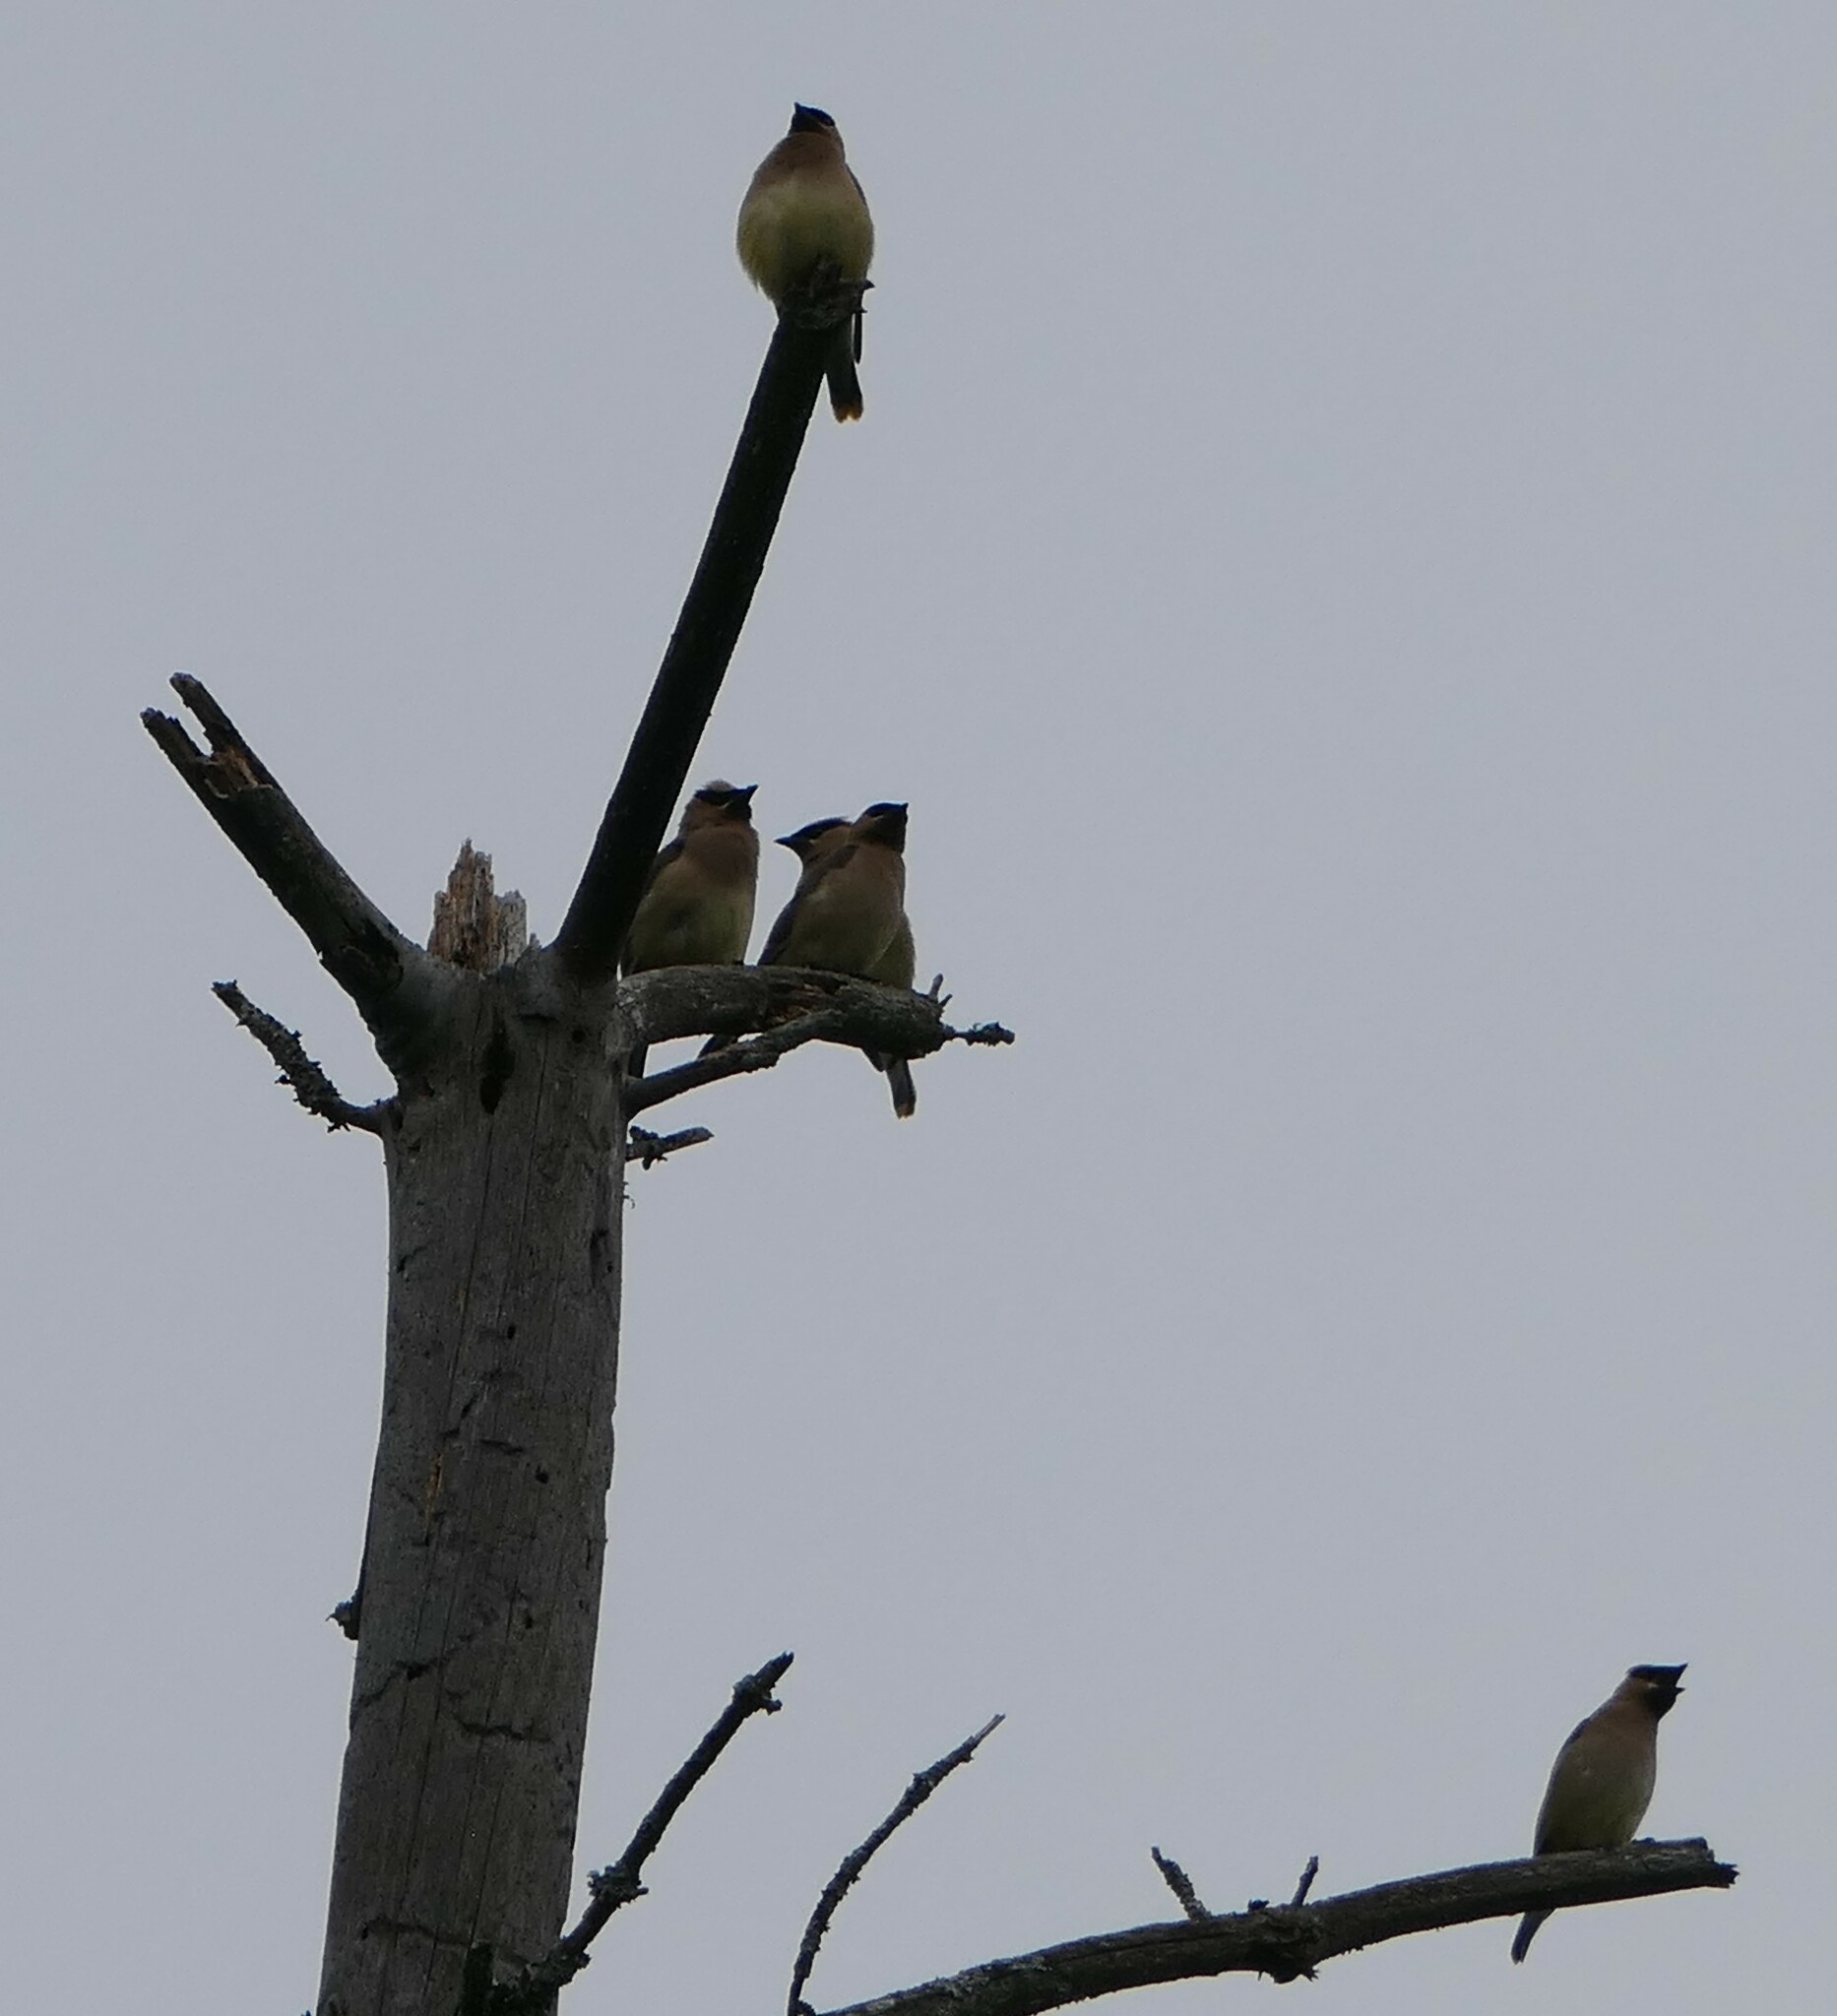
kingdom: Animalia
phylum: Chordata
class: Aves
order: Passeriformes
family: Bombycillidae
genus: Bombycilla
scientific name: Bombycilla cedrorum
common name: Cedar waxwing
